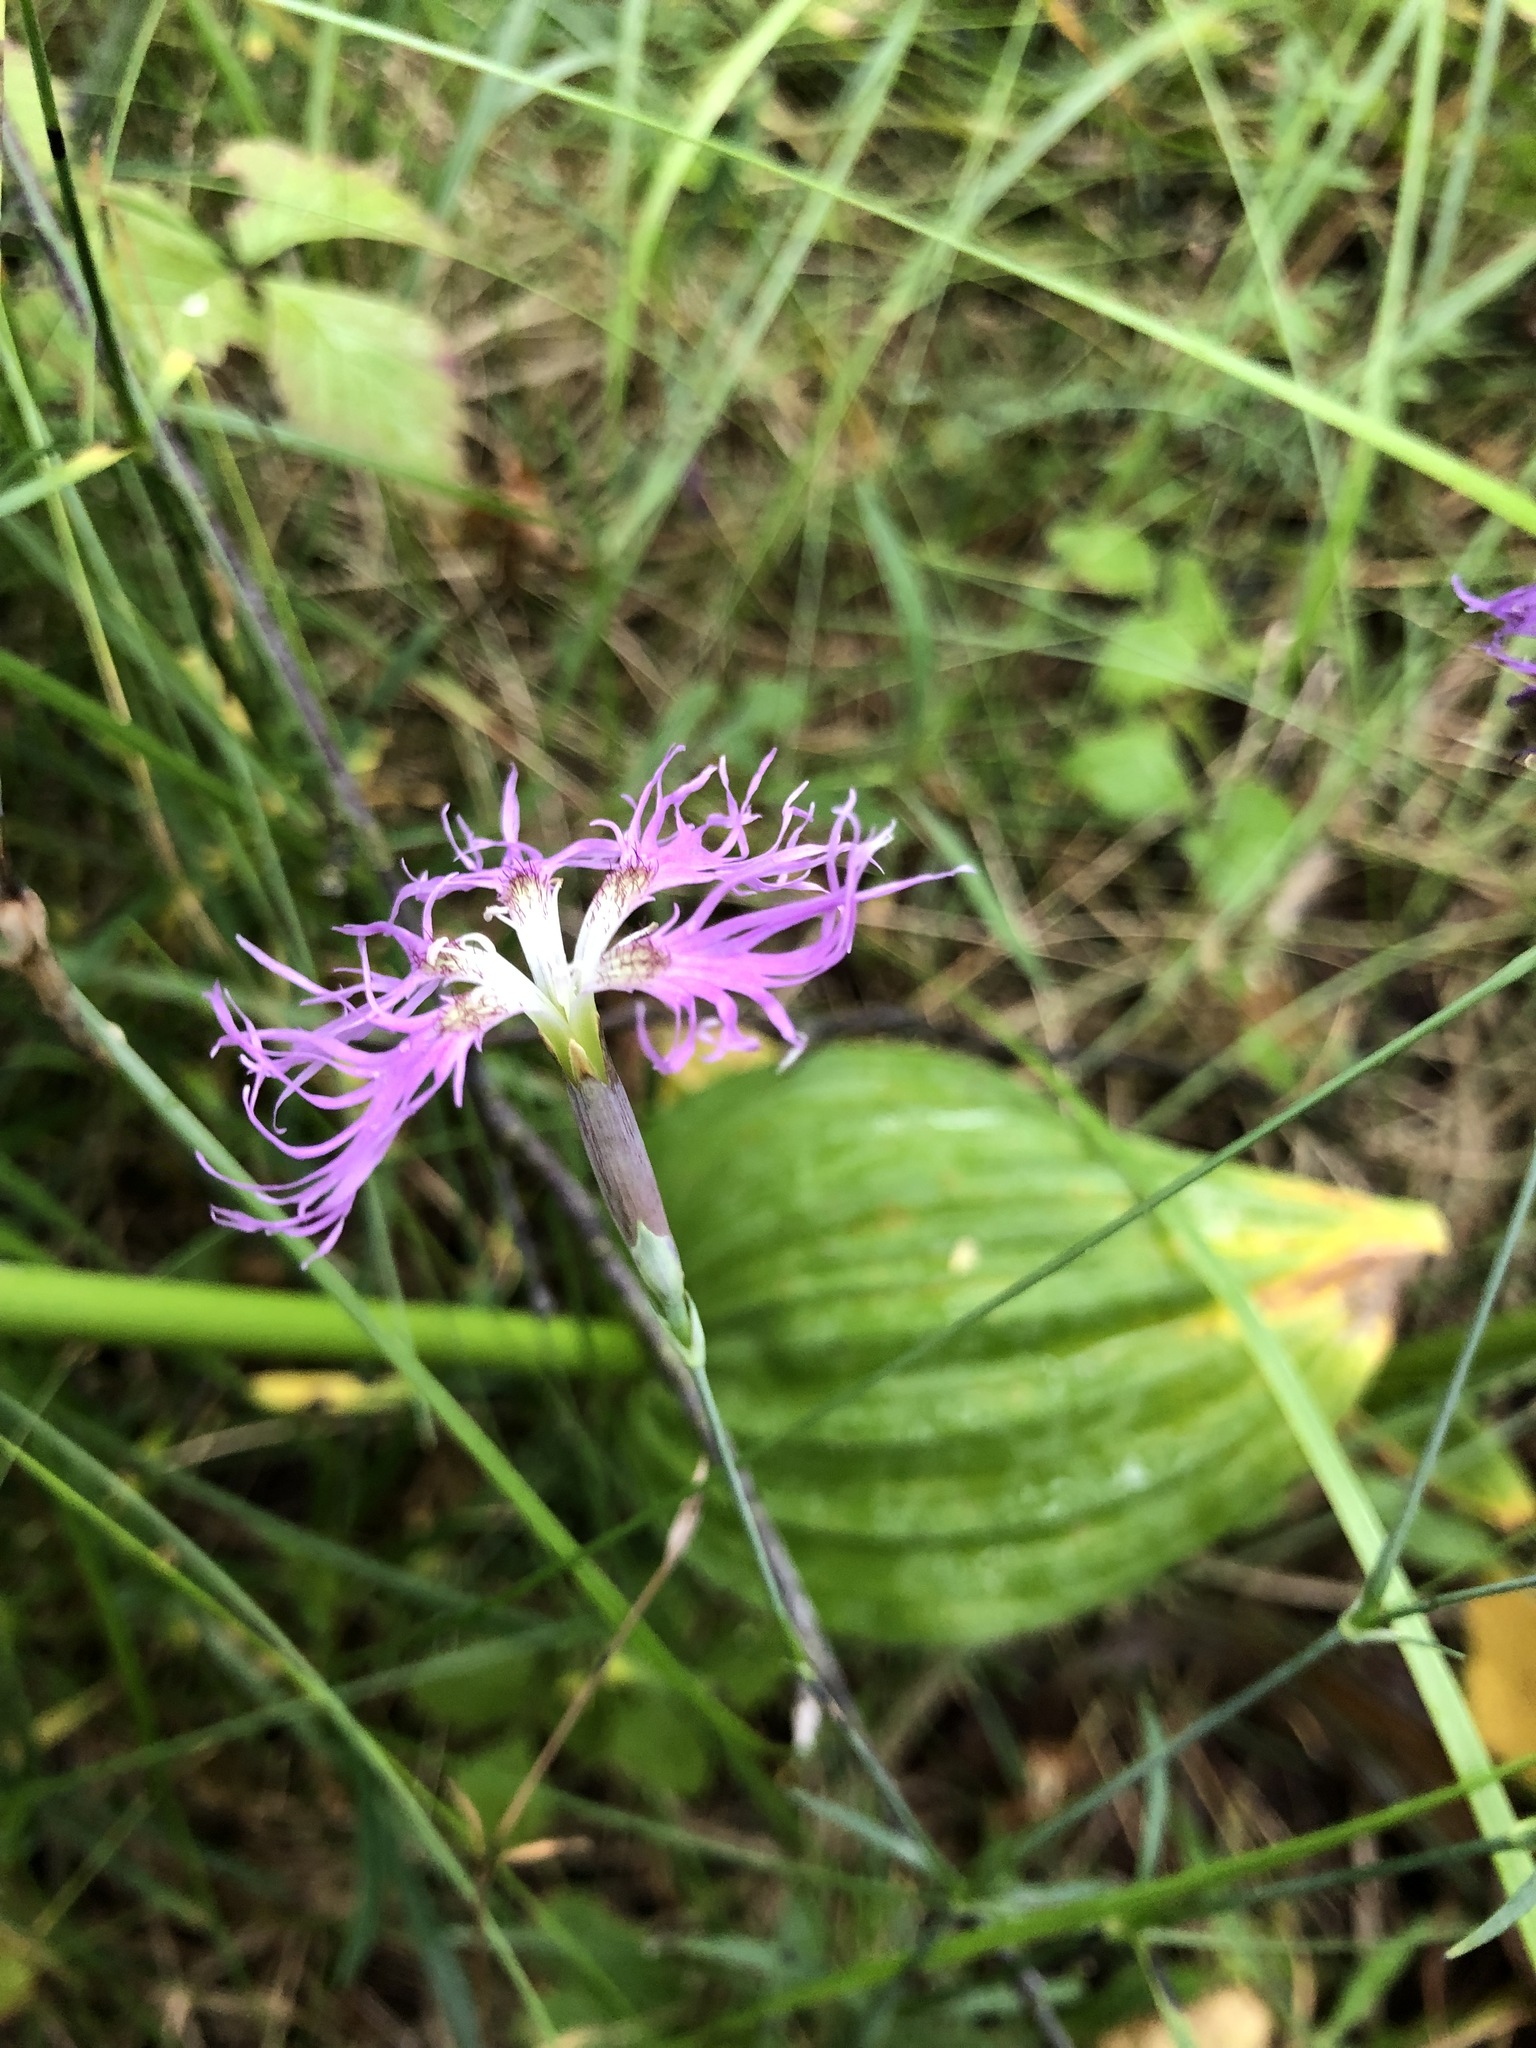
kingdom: Plantae
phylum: Tracheophyta
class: Magnoliopsida
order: Caryophyllales
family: Caryophyllaceae
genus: Dianthus
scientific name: Dianthus superbus
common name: Fringed pink
